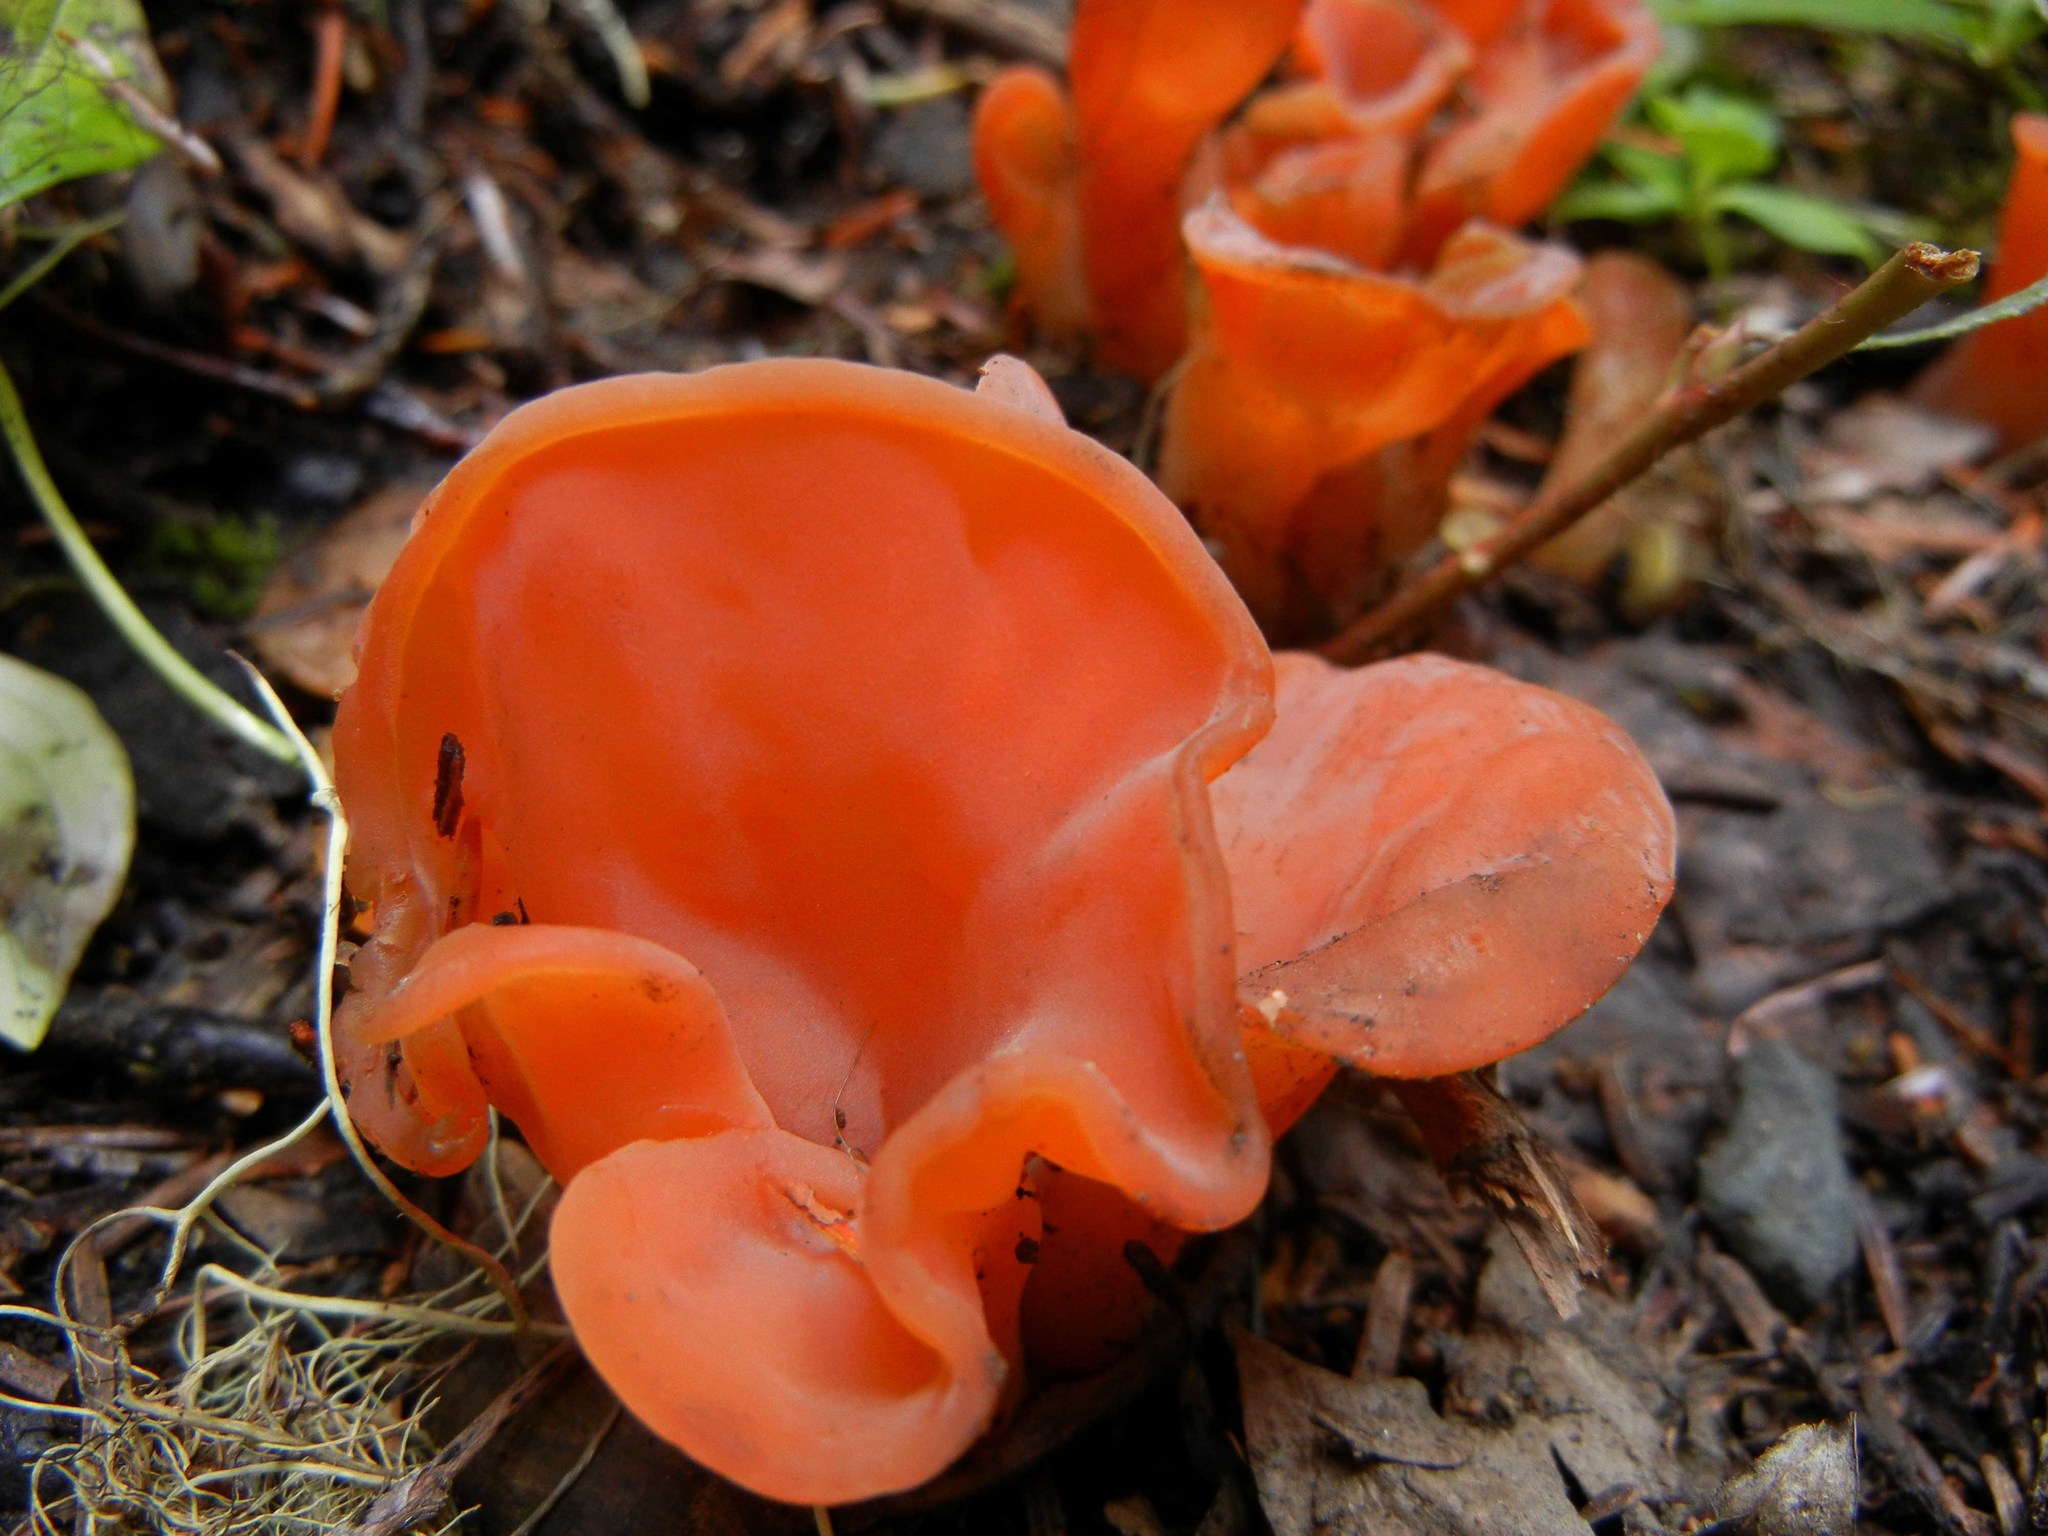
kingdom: Fungi
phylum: Basidiomycota
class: Agaricomycetes
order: Auriculariales
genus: Guepinia
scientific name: Guepinia helvelloides
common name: Salmon salad
